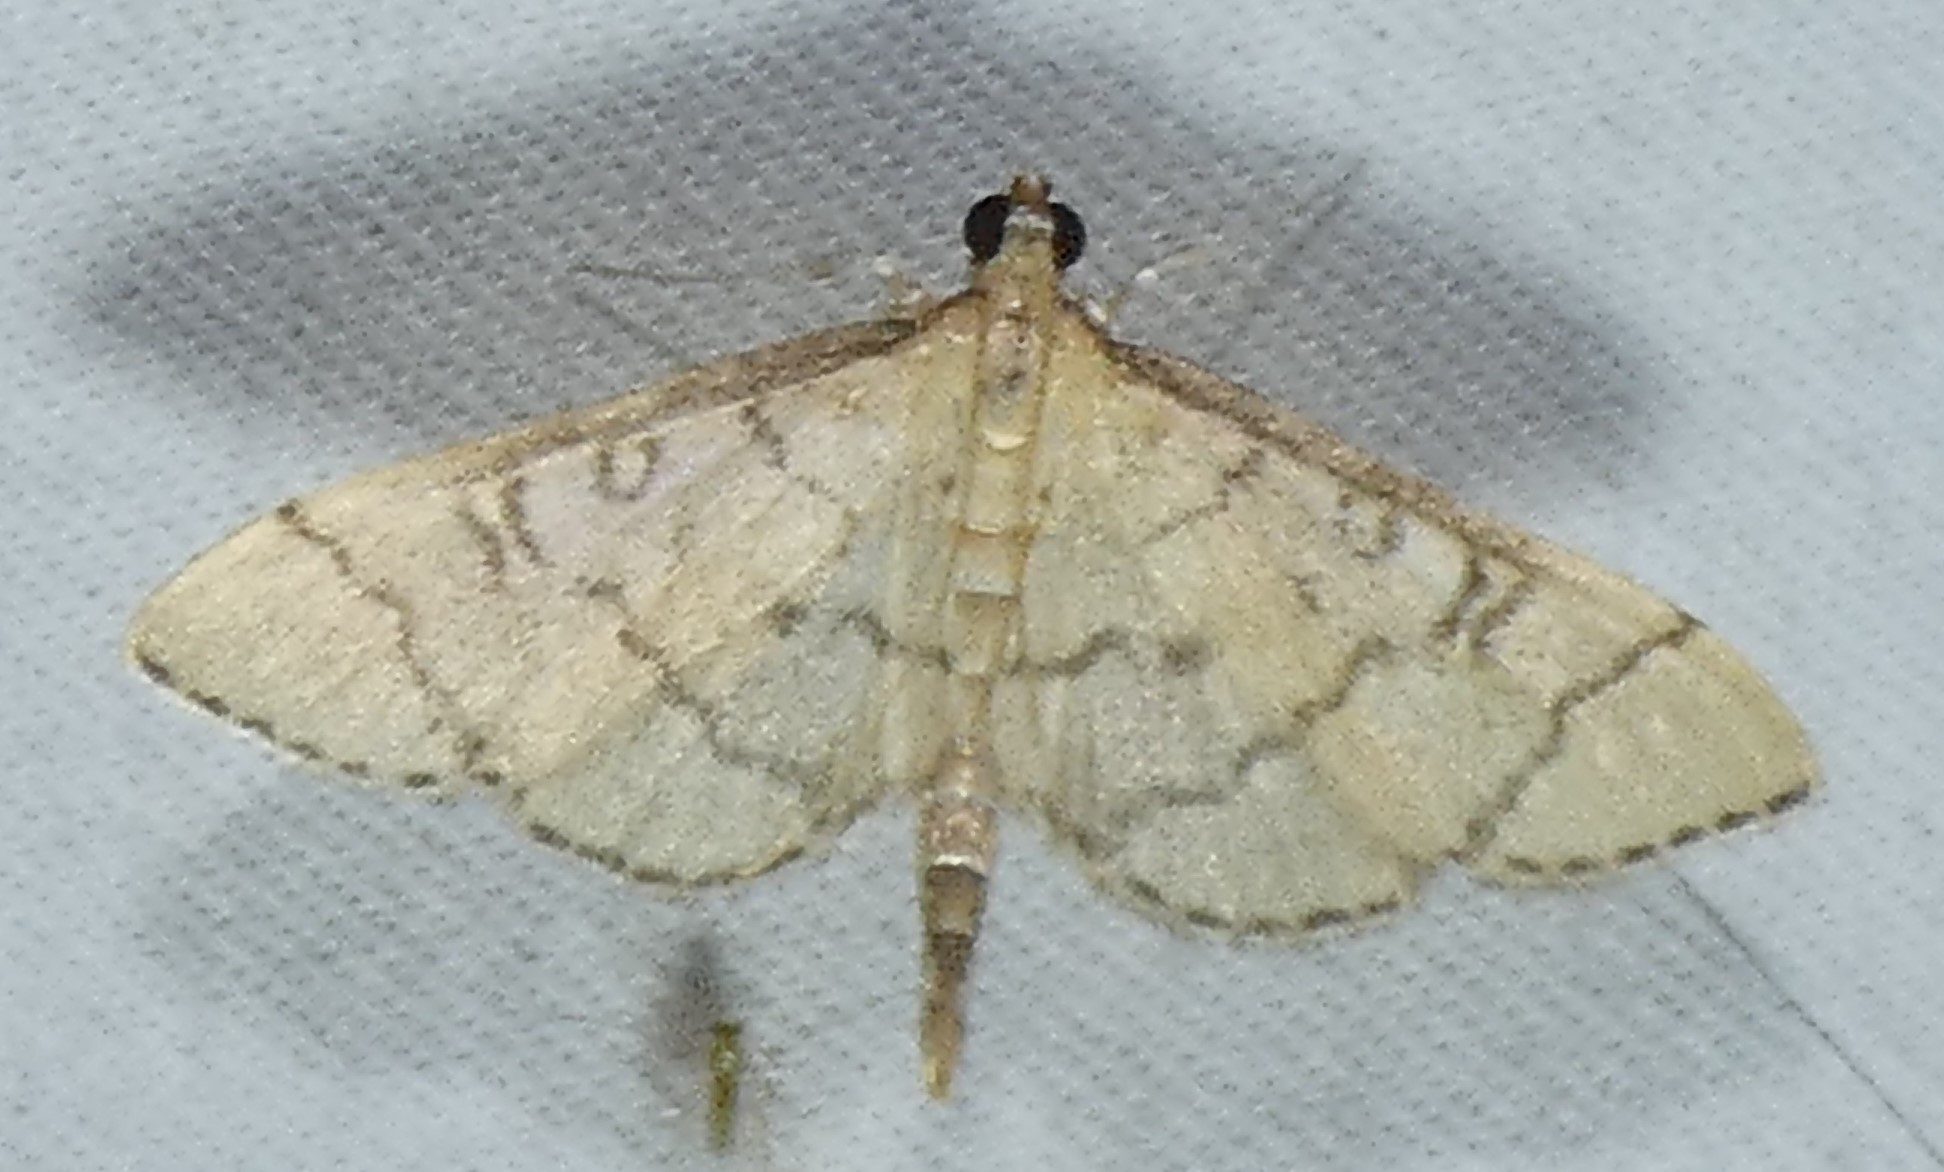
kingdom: Animalia
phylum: Arthropoda
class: Insecta
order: Lepidoptera
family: Crambidae
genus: Lamprosema
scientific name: Lamprosema Blepharomastix ranalis
